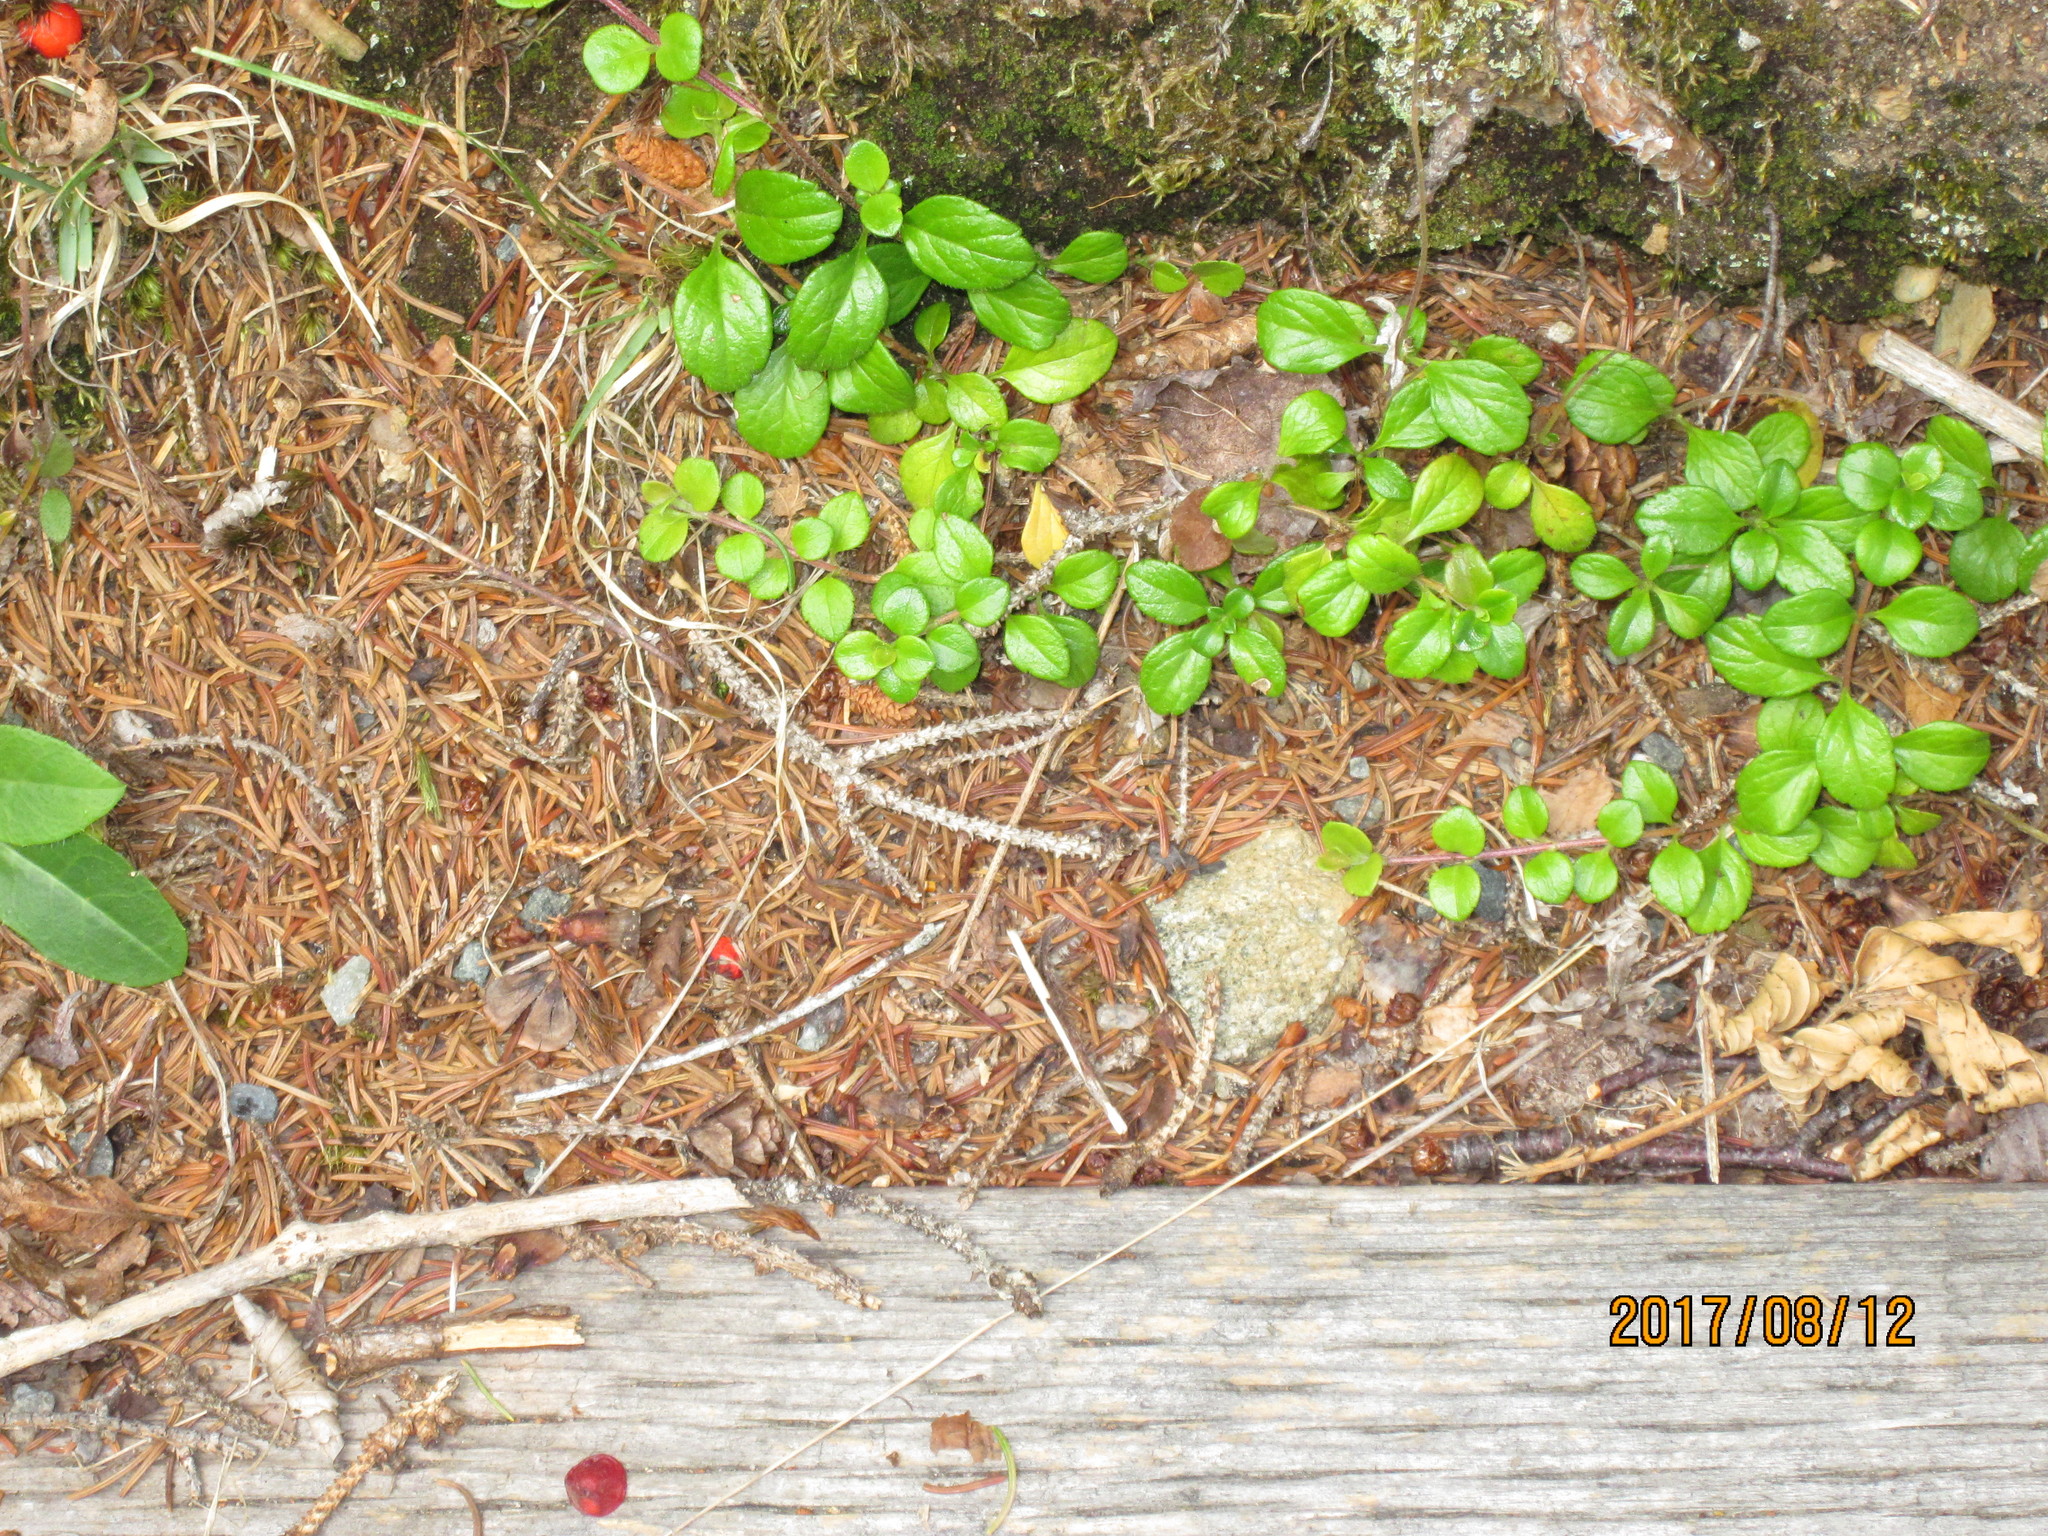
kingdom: Plantae
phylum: Tracheophyta
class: Magnoliopsida
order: Dipsacales
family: Caprifoliaceae
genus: Linnaea
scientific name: Linnaea borealis
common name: Twinflower
